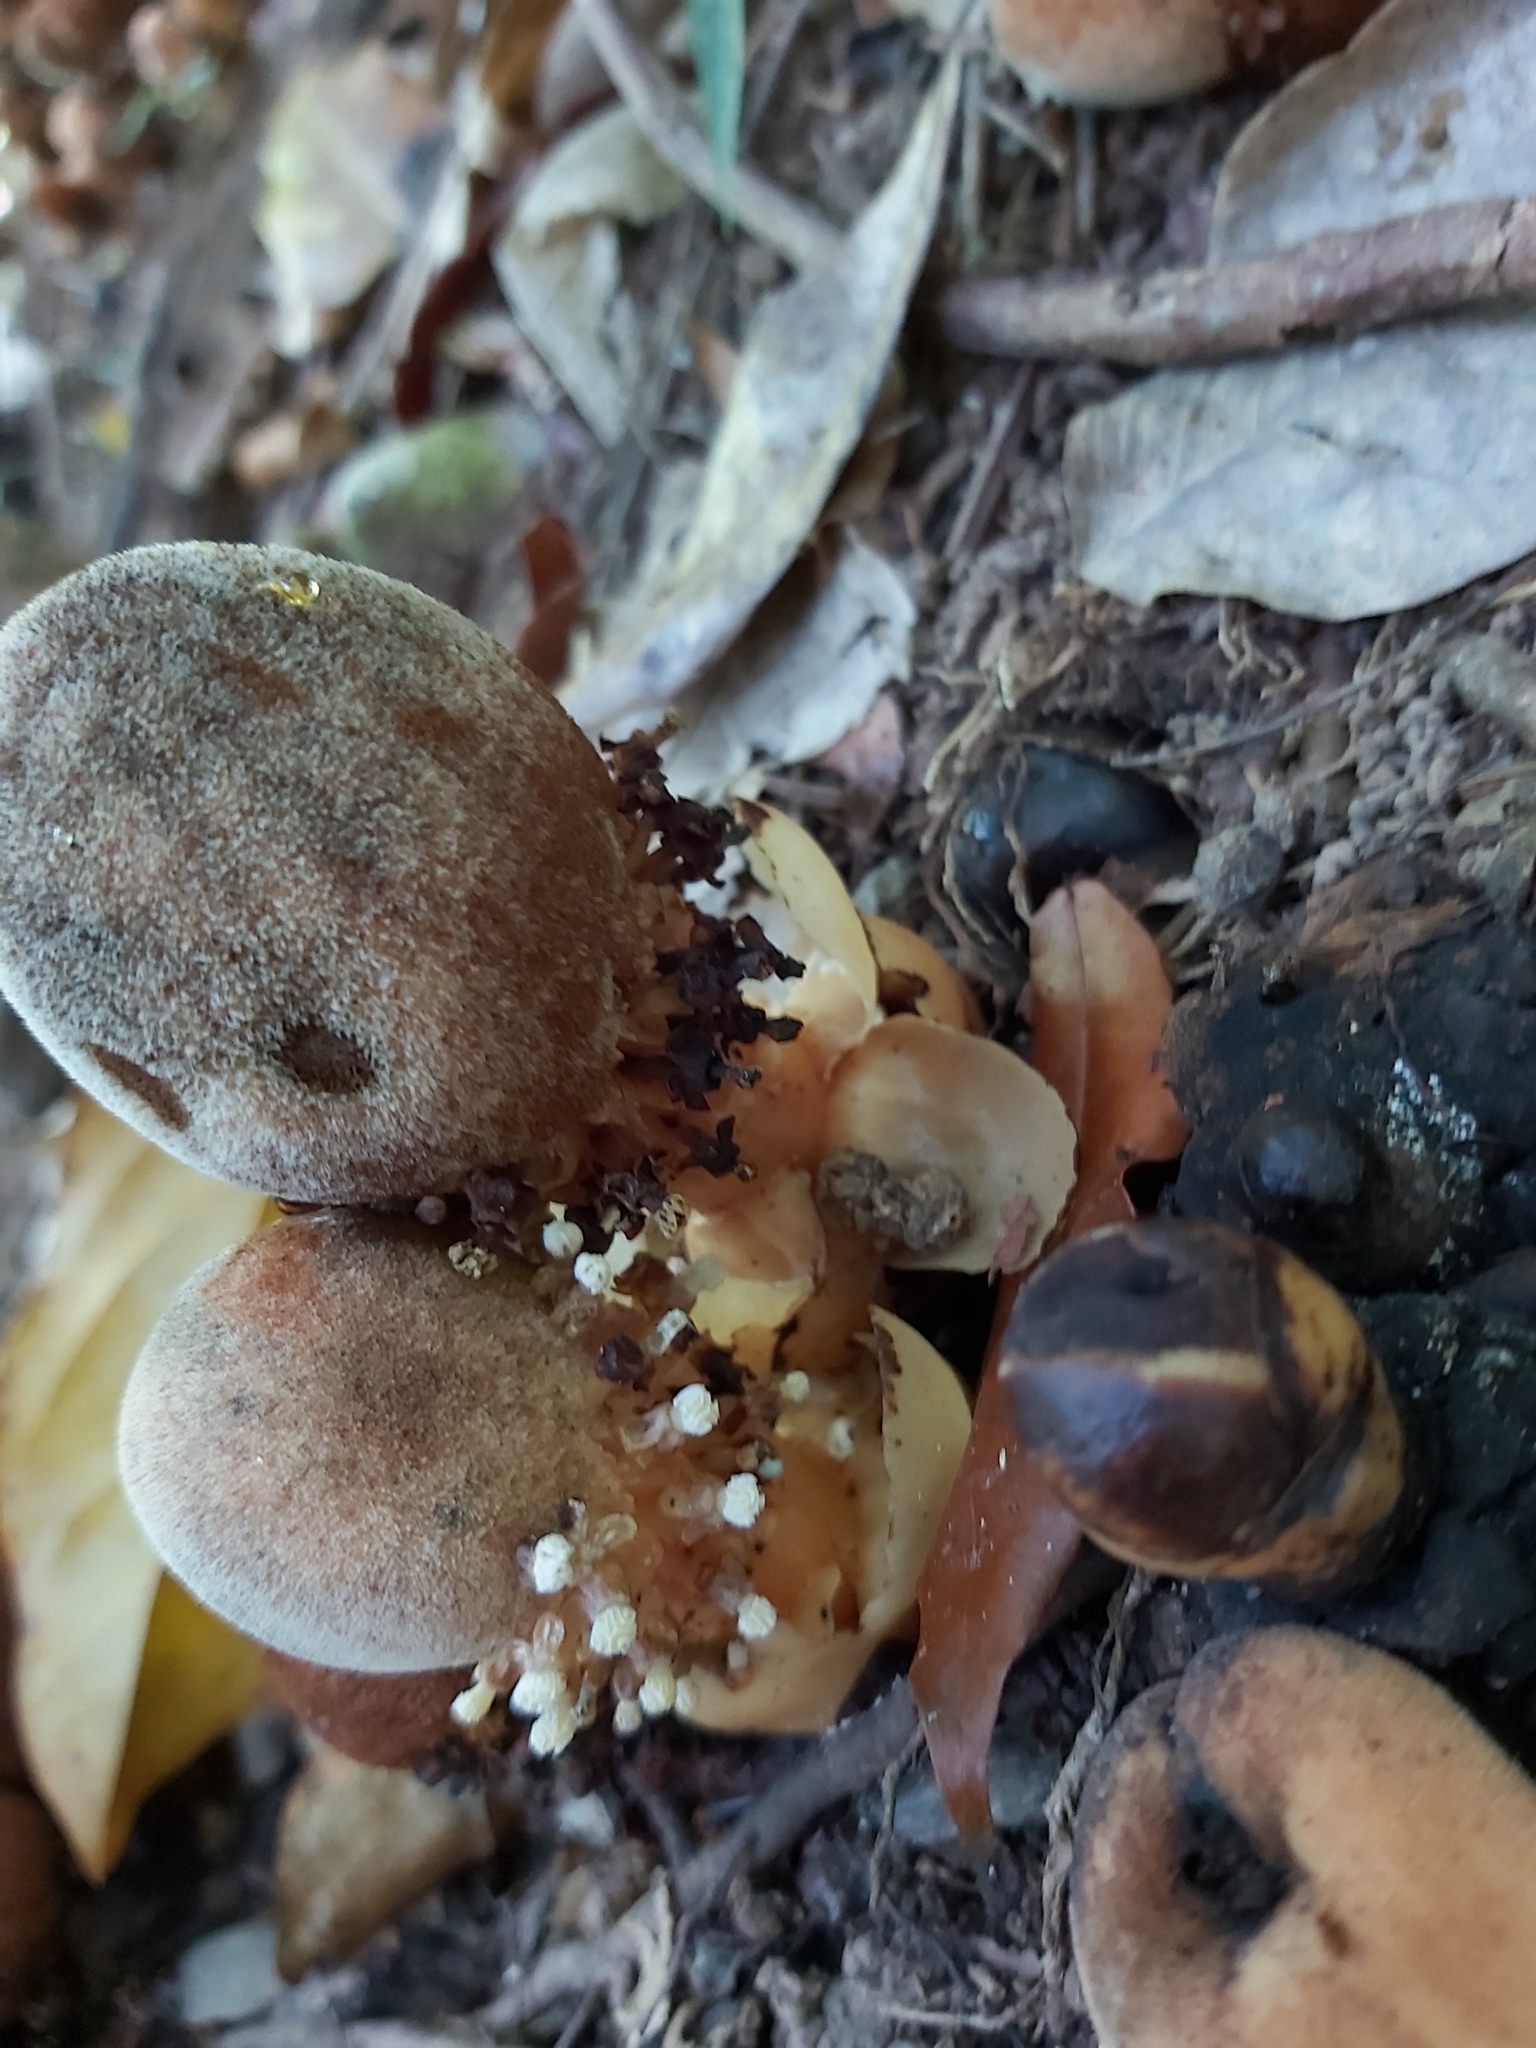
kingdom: Plantae
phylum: Tracheophyta
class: Magnoliopsida
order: Santalales
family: Balanophoraceae
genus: Balanophora
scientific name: Balanophora fungosa
